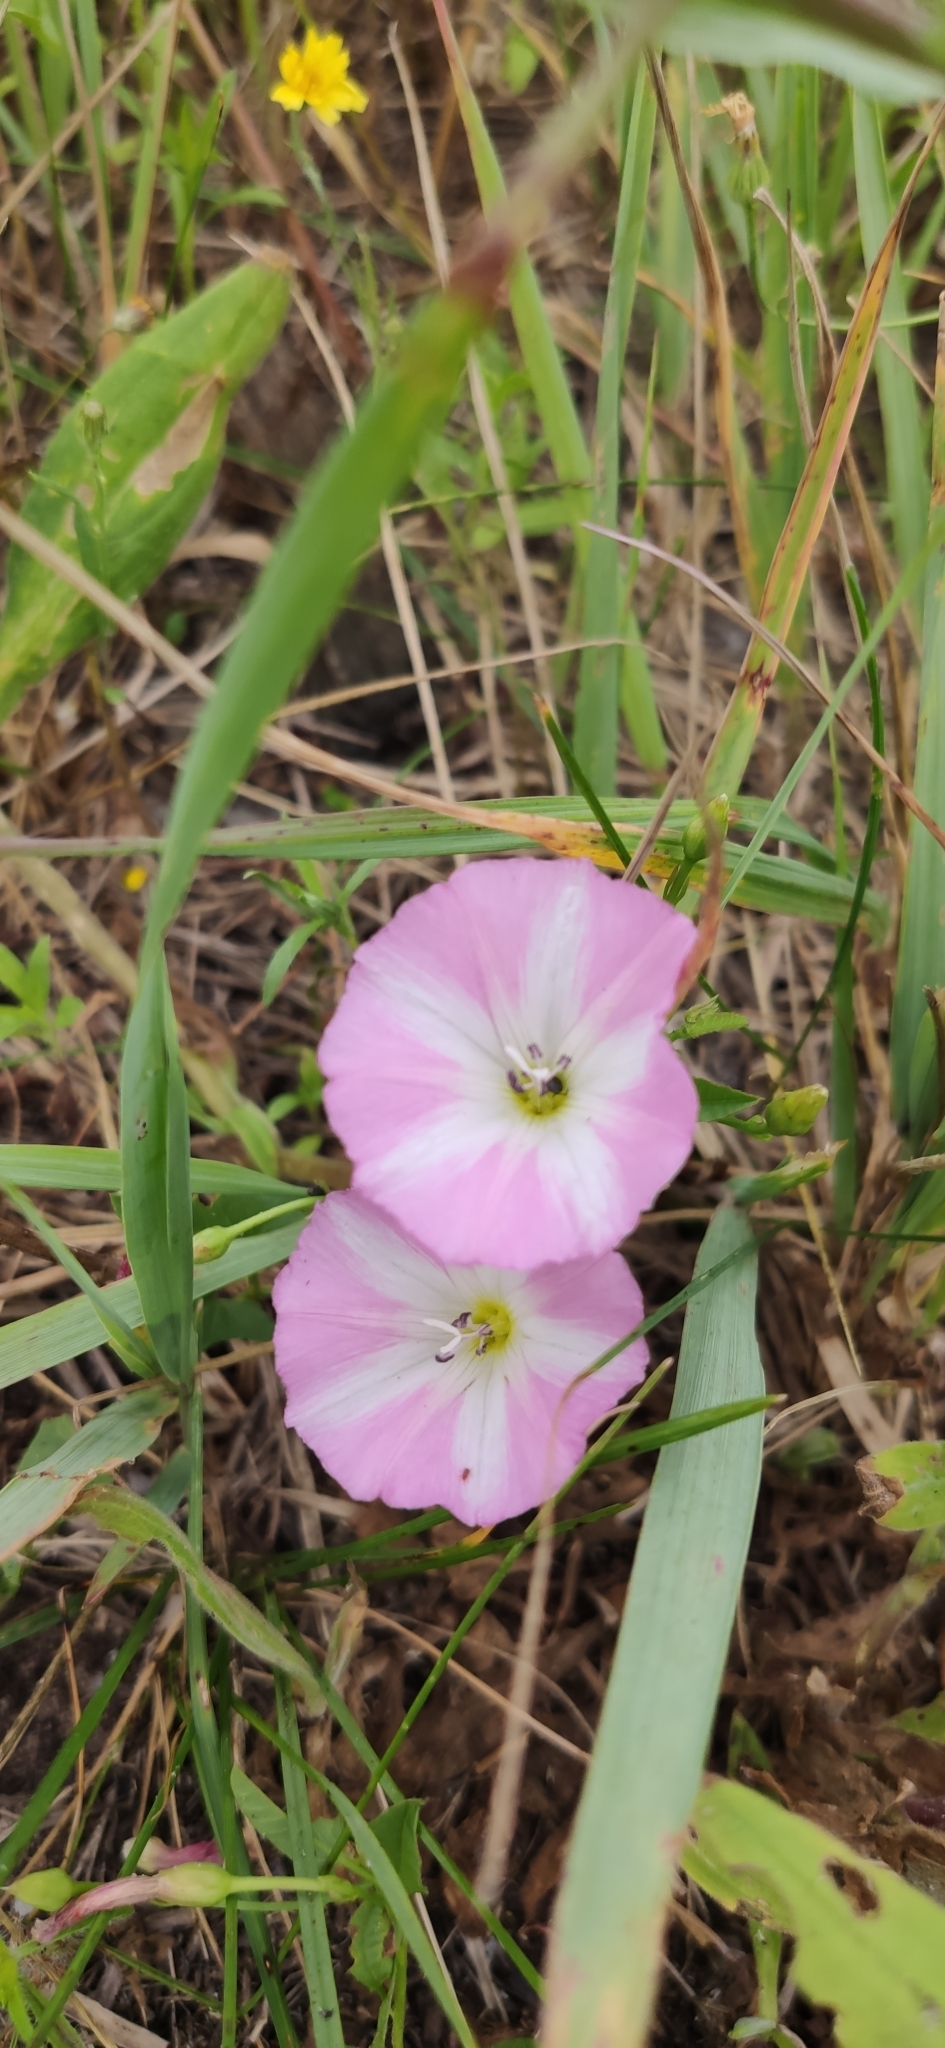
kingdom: Plantae
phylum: Tracheophyta
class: Magnoliopsida
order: Solanales
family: Convolvulaceae
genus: Convolvulus
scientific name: Convolvulus arvensis
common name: Field bindweed
